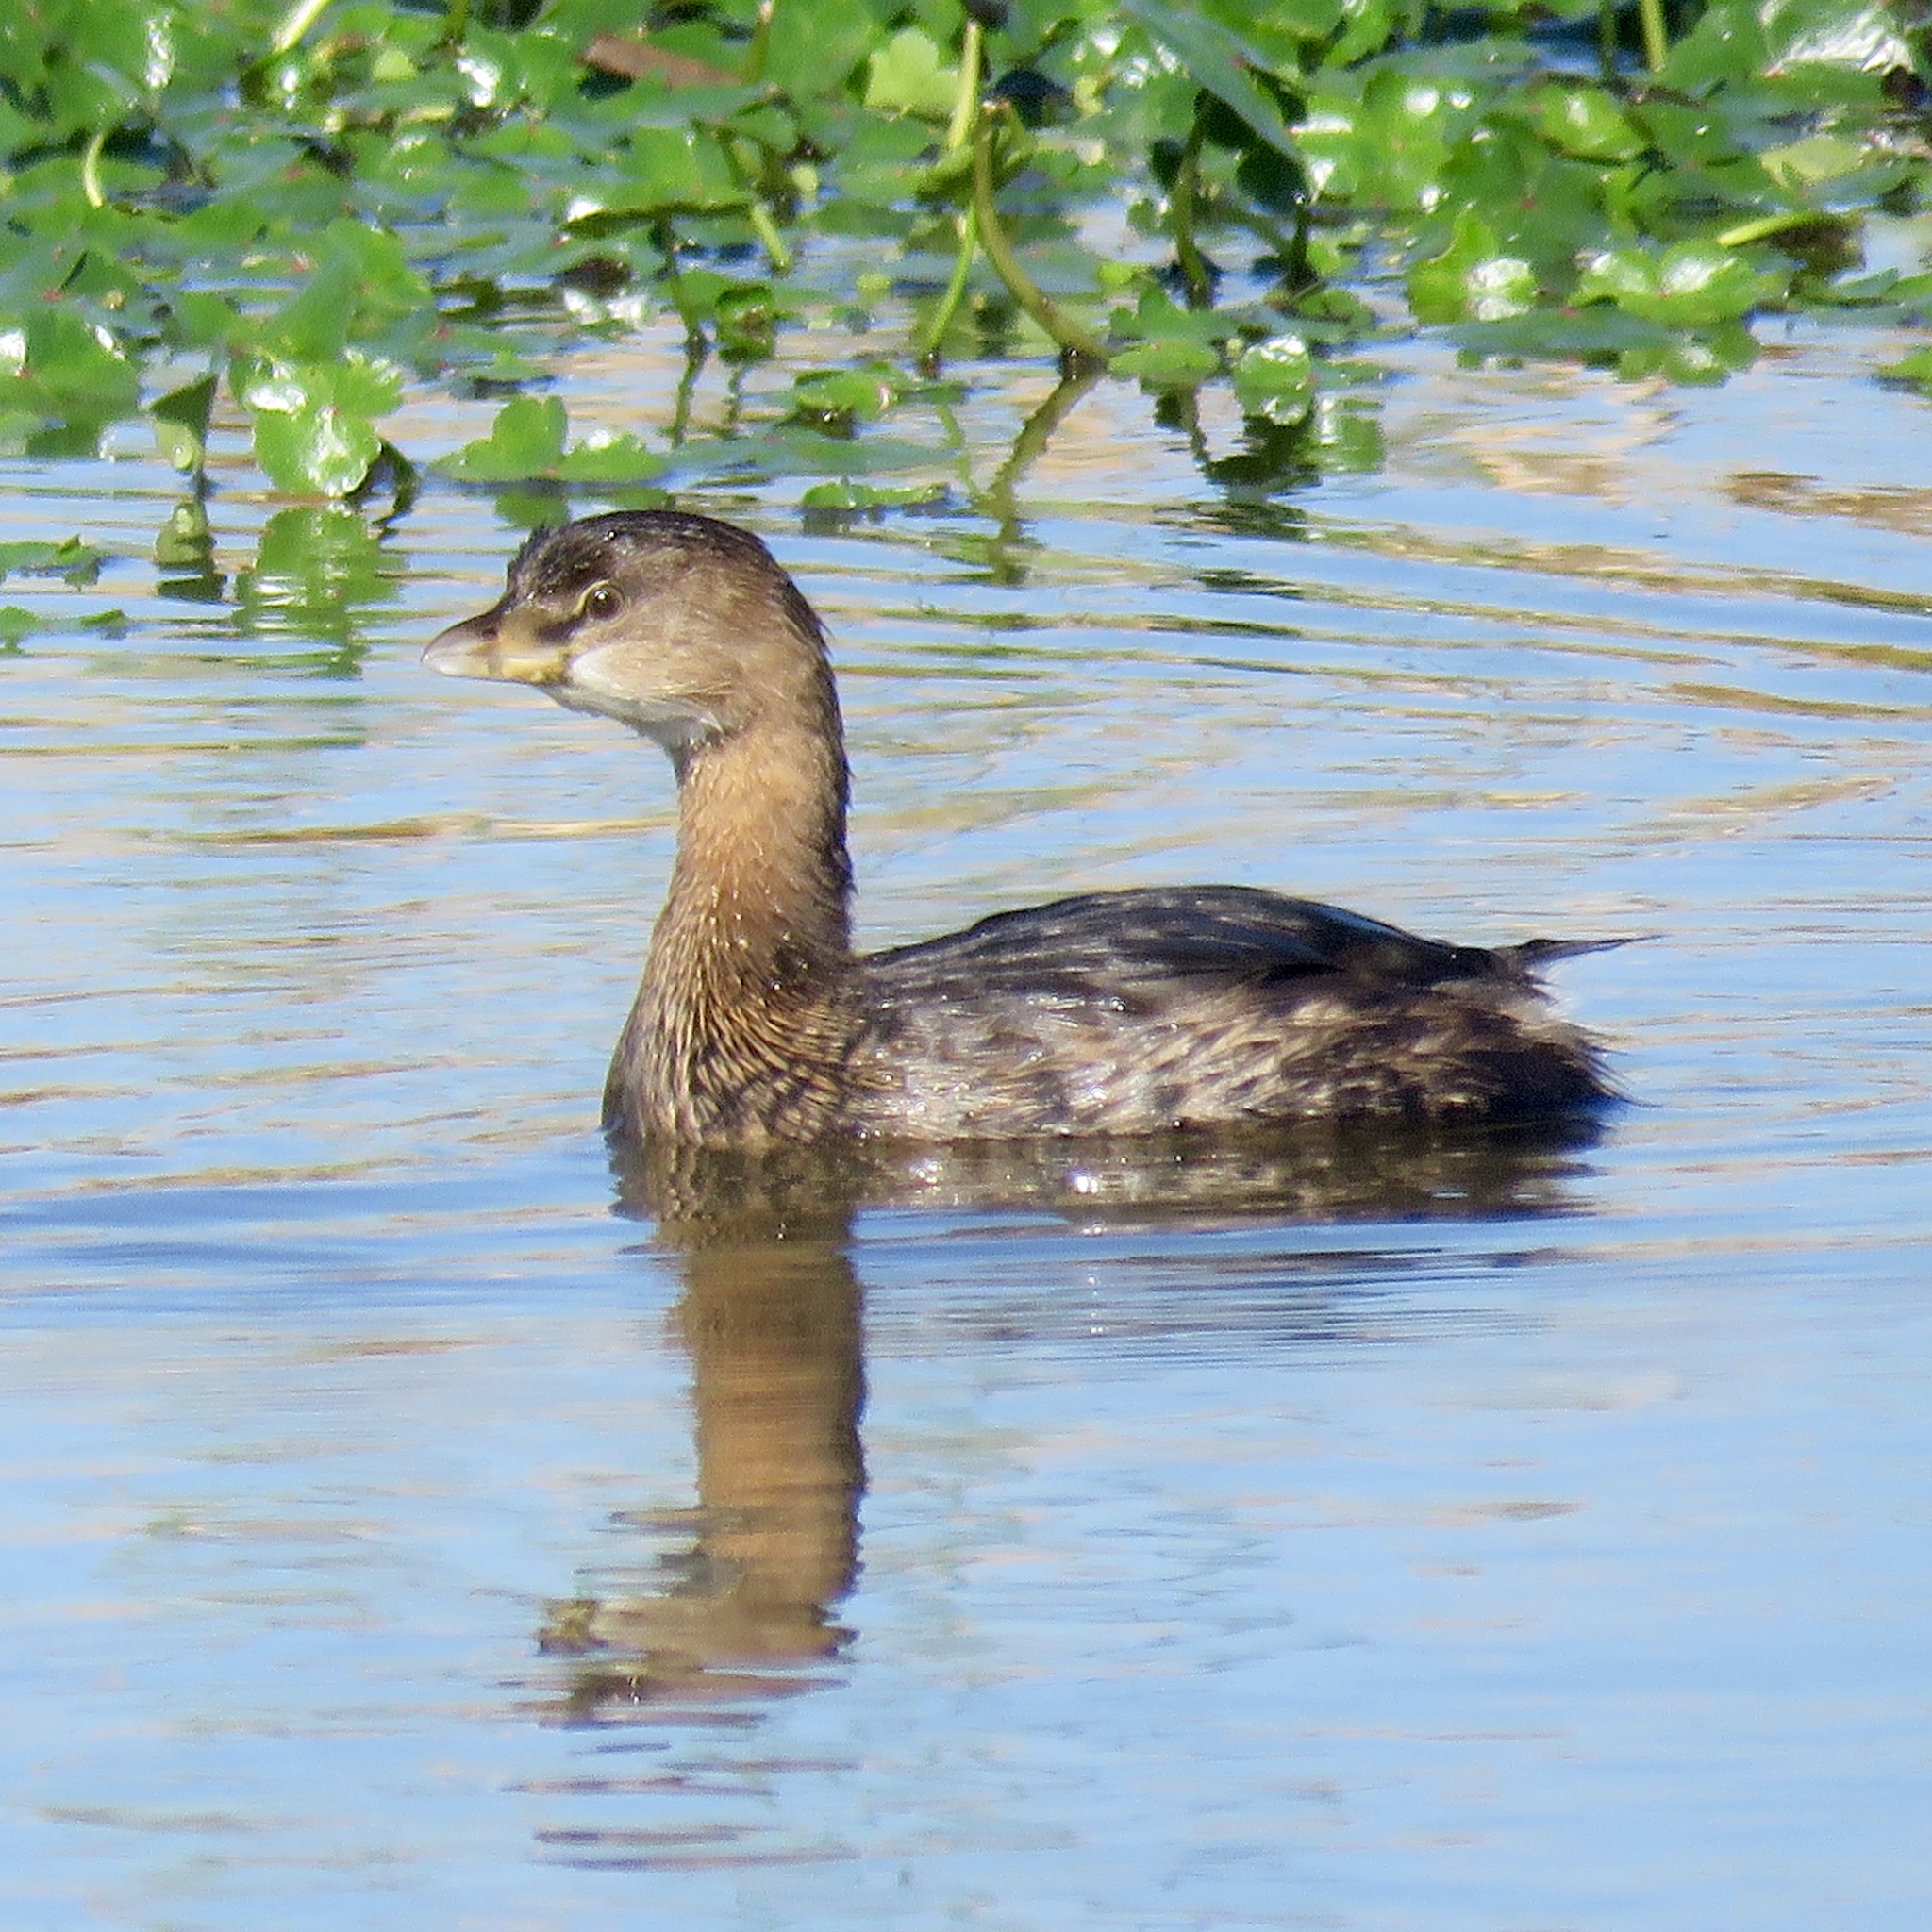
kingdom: Animalia
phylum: Chordata
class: Aves
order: Podicipediformes
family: Podicipedidae
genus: Podilymbus
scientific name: Podilymbus podiceps
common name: Pied-billed grebe
